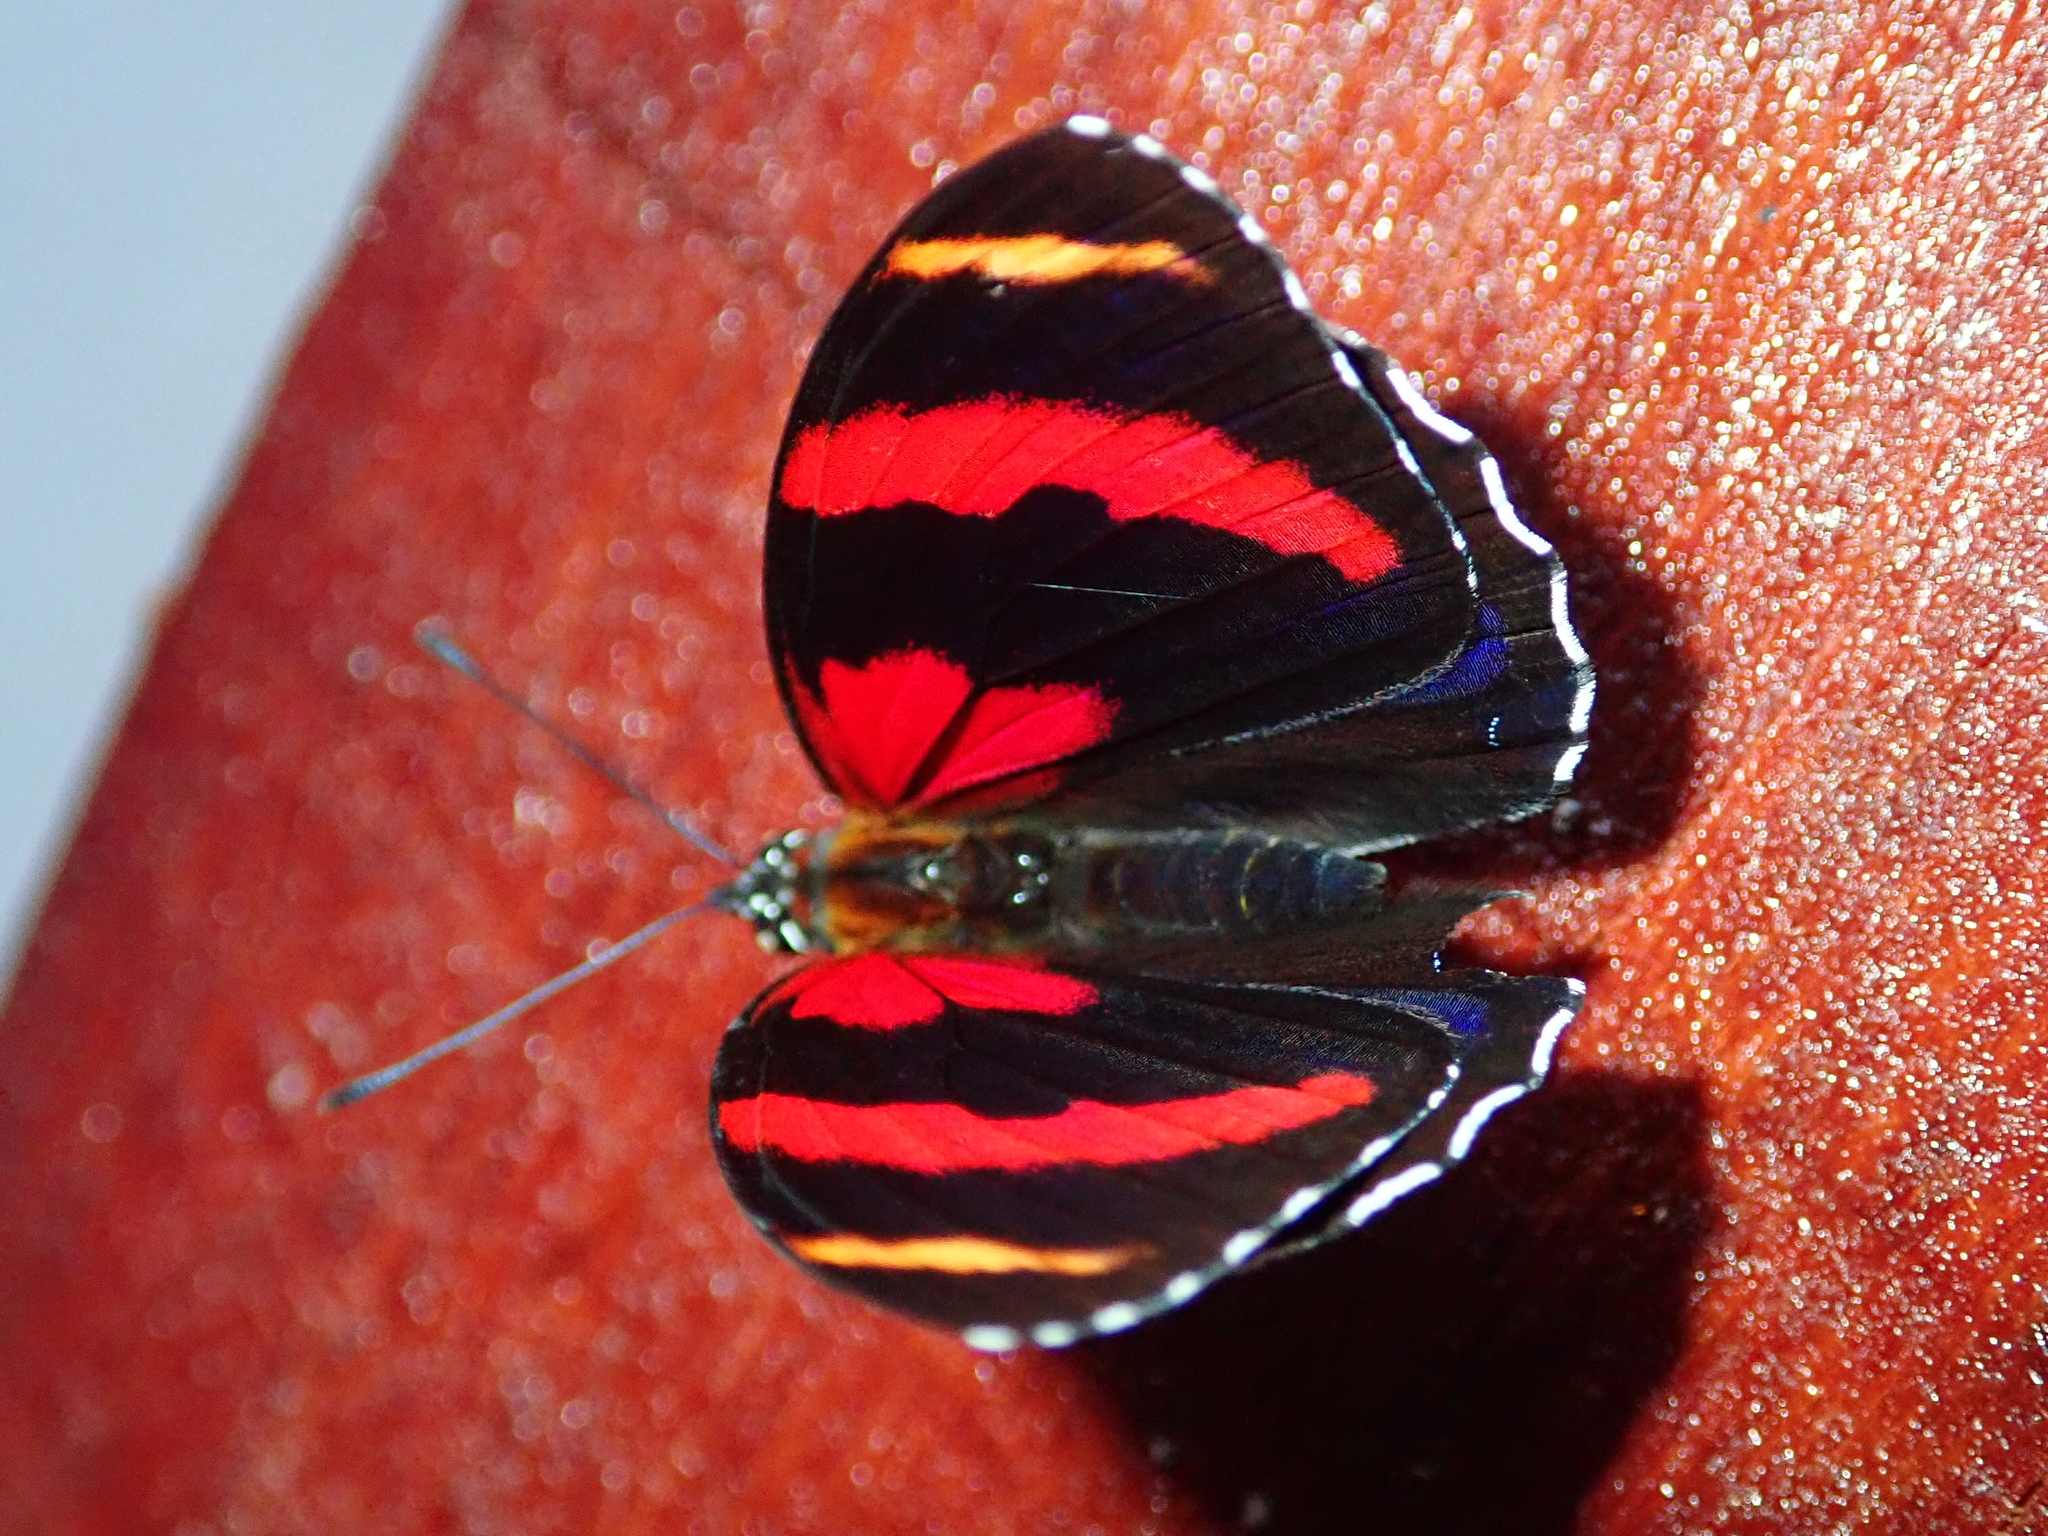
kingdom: Animalia
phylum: Arthropoda
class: Insecta
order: Lepidoptera
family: Nymphalidae
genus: Catagramma
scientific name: Catagramma Callicore sorana
